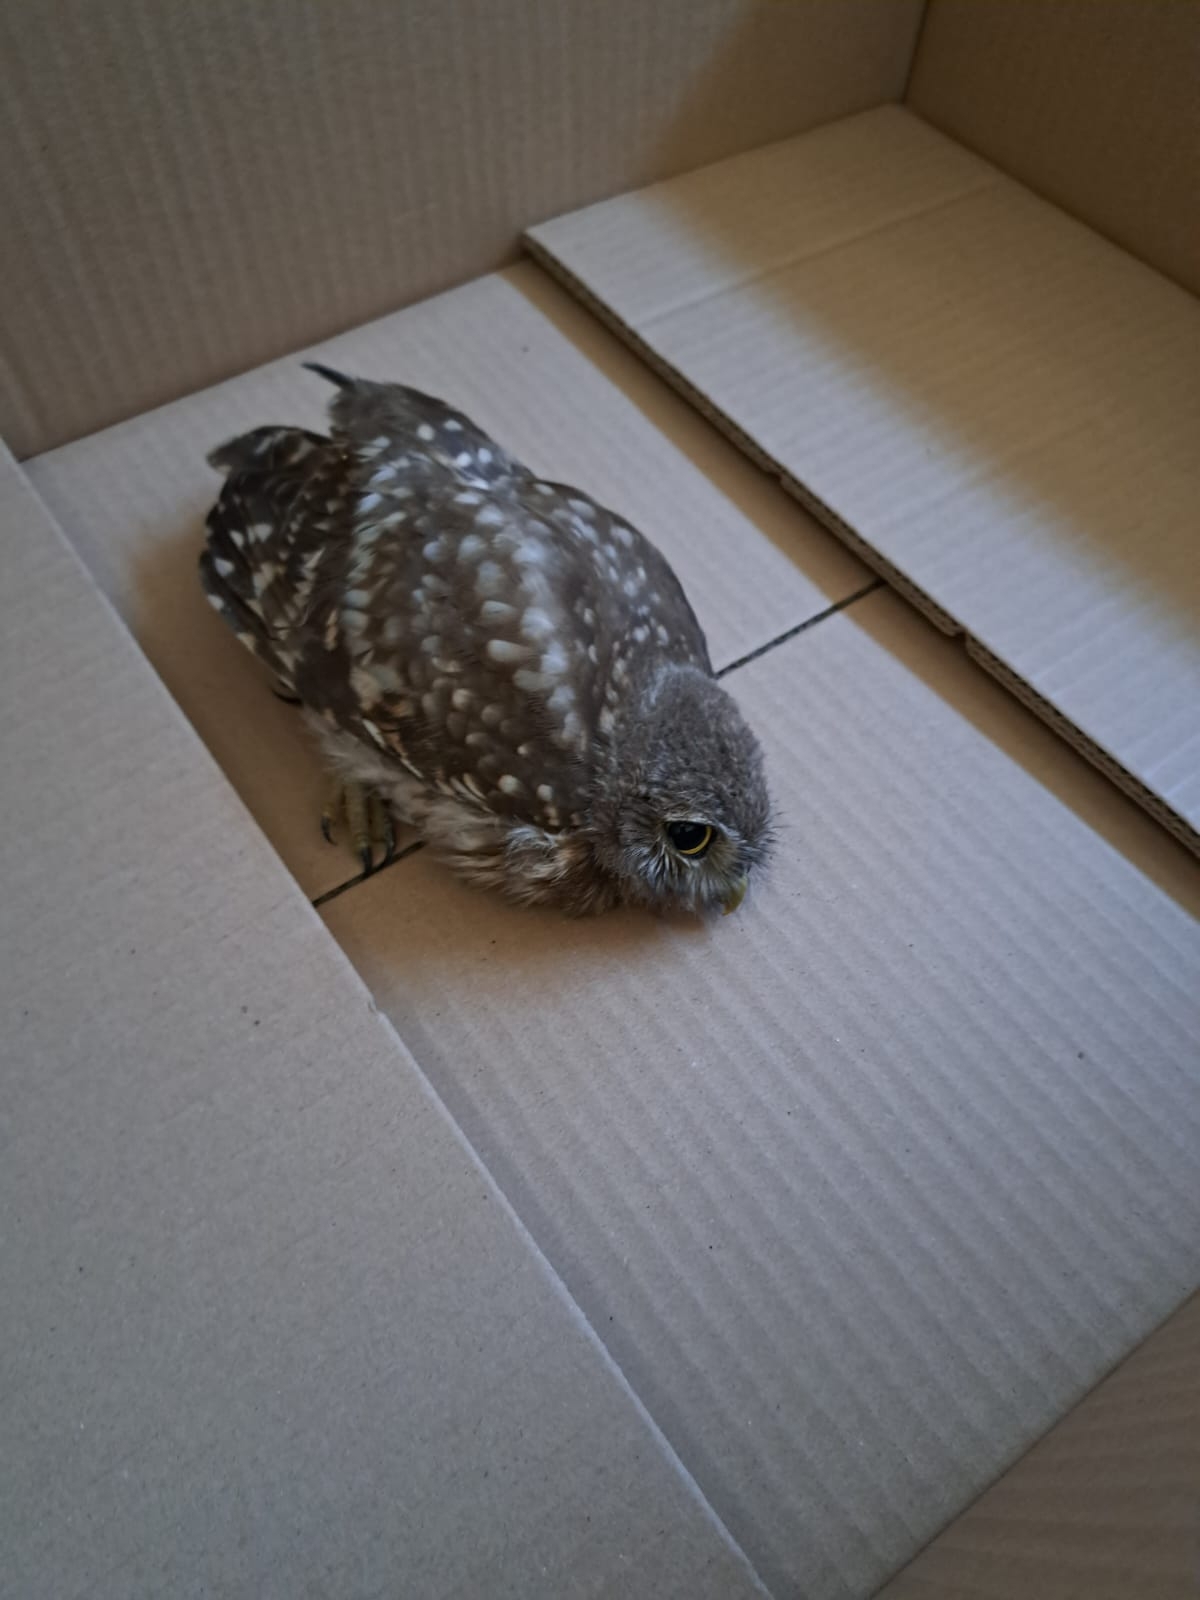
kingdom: Animalia
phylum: Chordata
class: Aves
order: Strigiformes
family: Strigidae
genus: Athene
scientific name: Athene noctua
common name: Little owl
